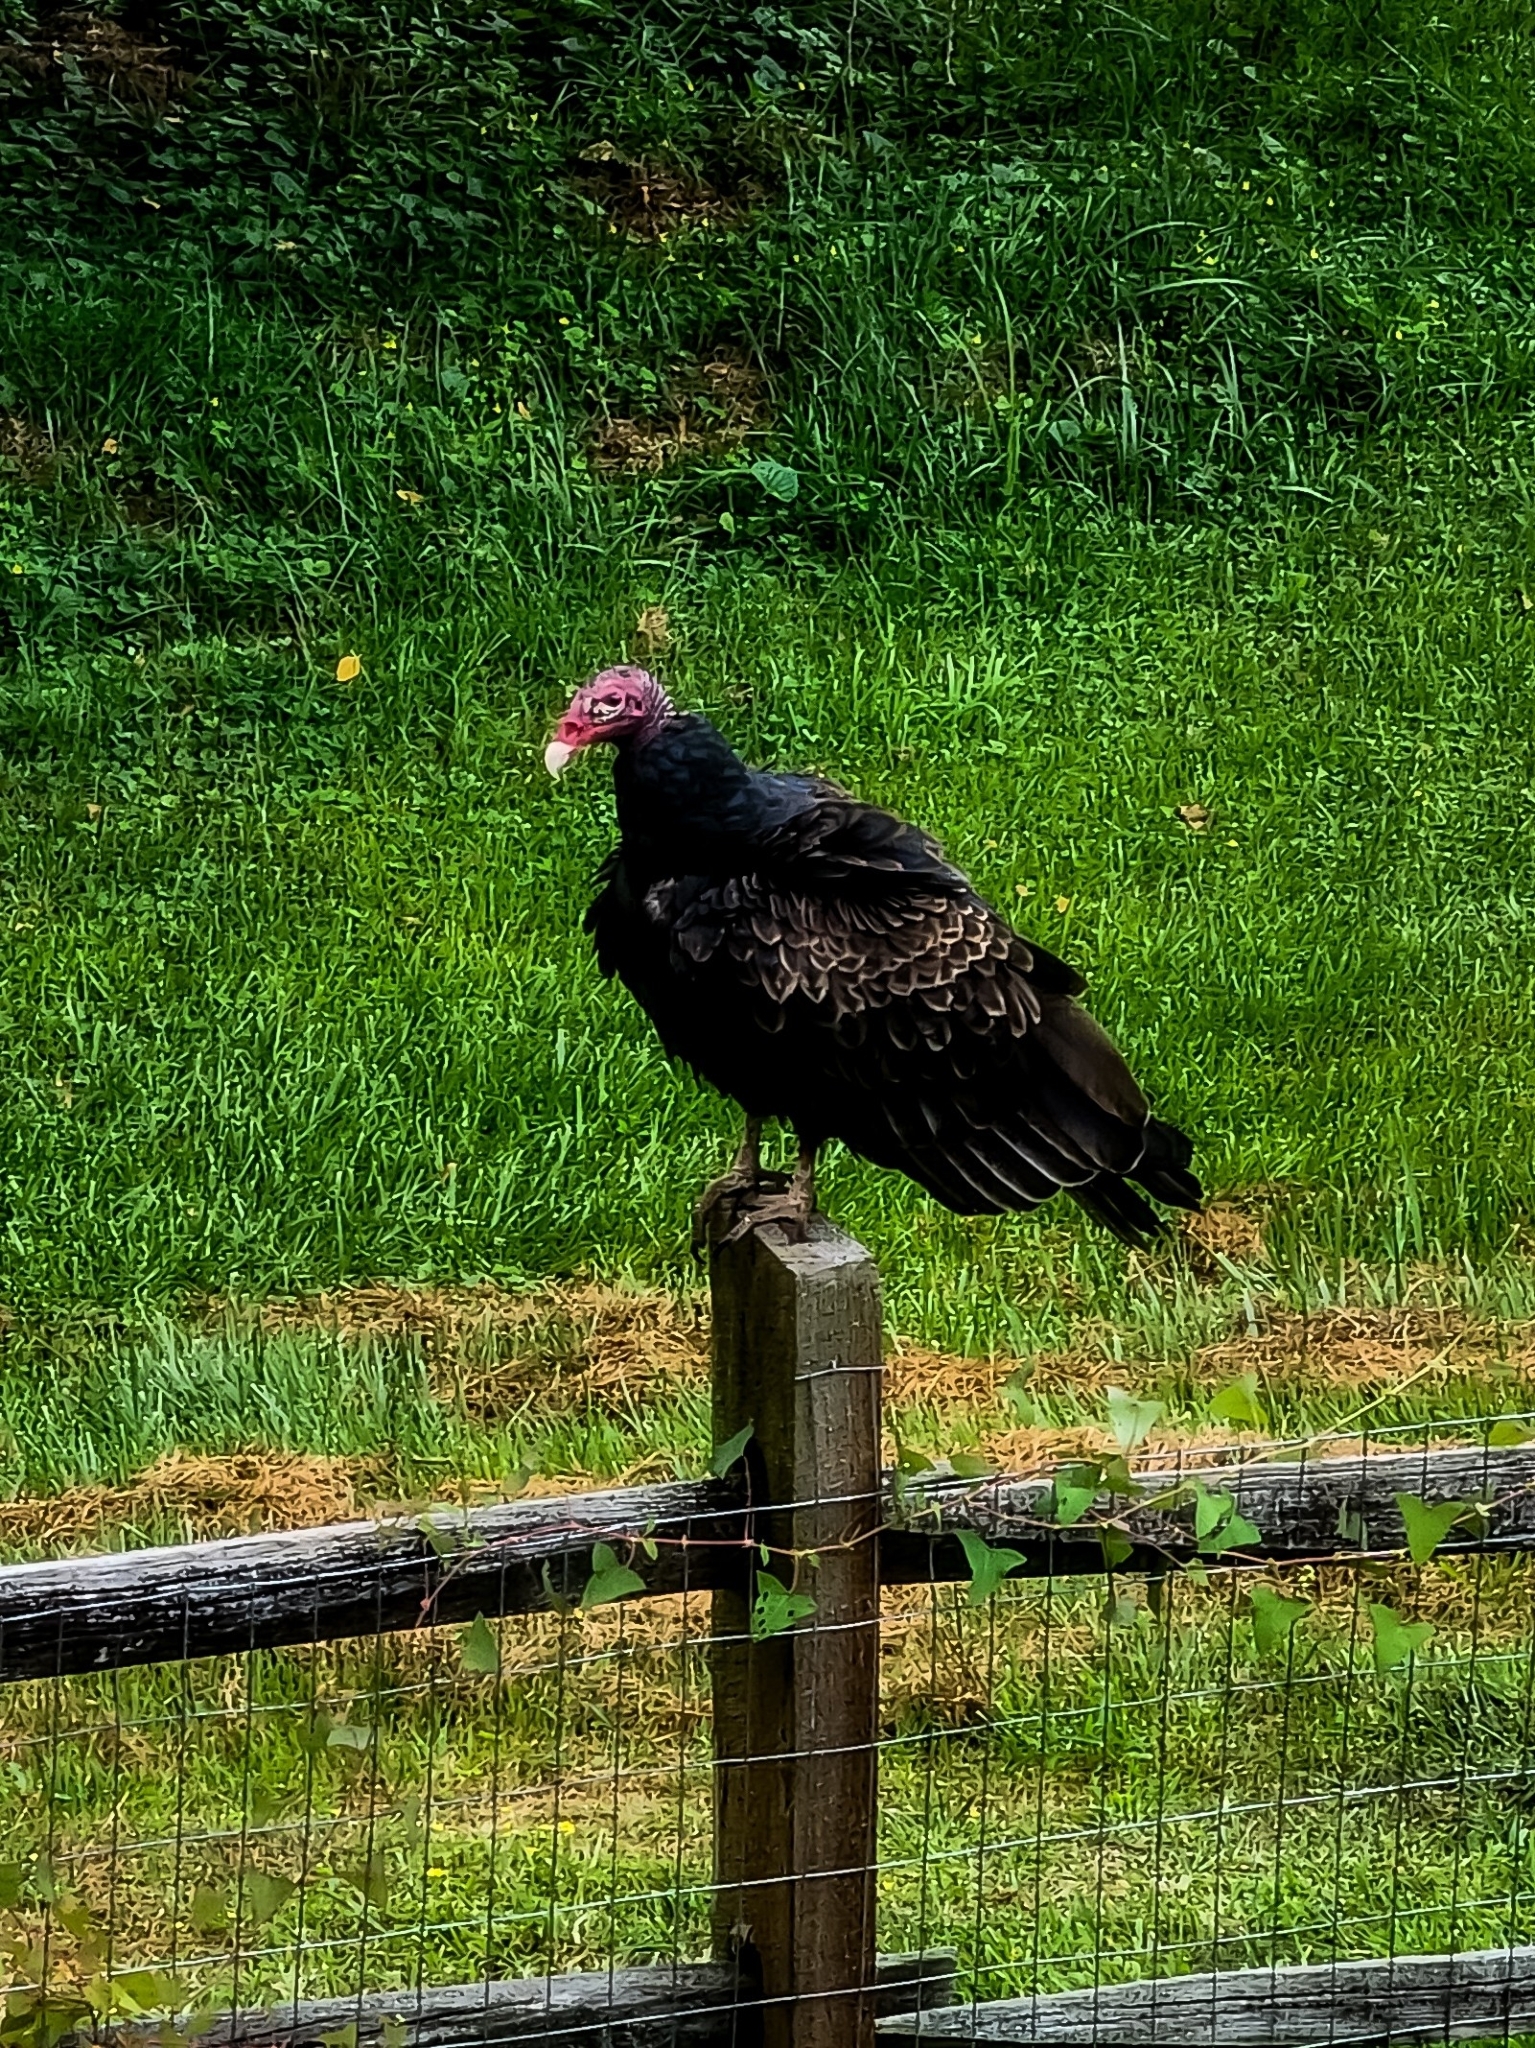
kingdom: Animalia
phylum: Chordata
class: Aves
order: Accipitriformes
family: Cathartidae
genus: Cathartes
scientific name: Cathartes aura
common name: Turkey vulture
